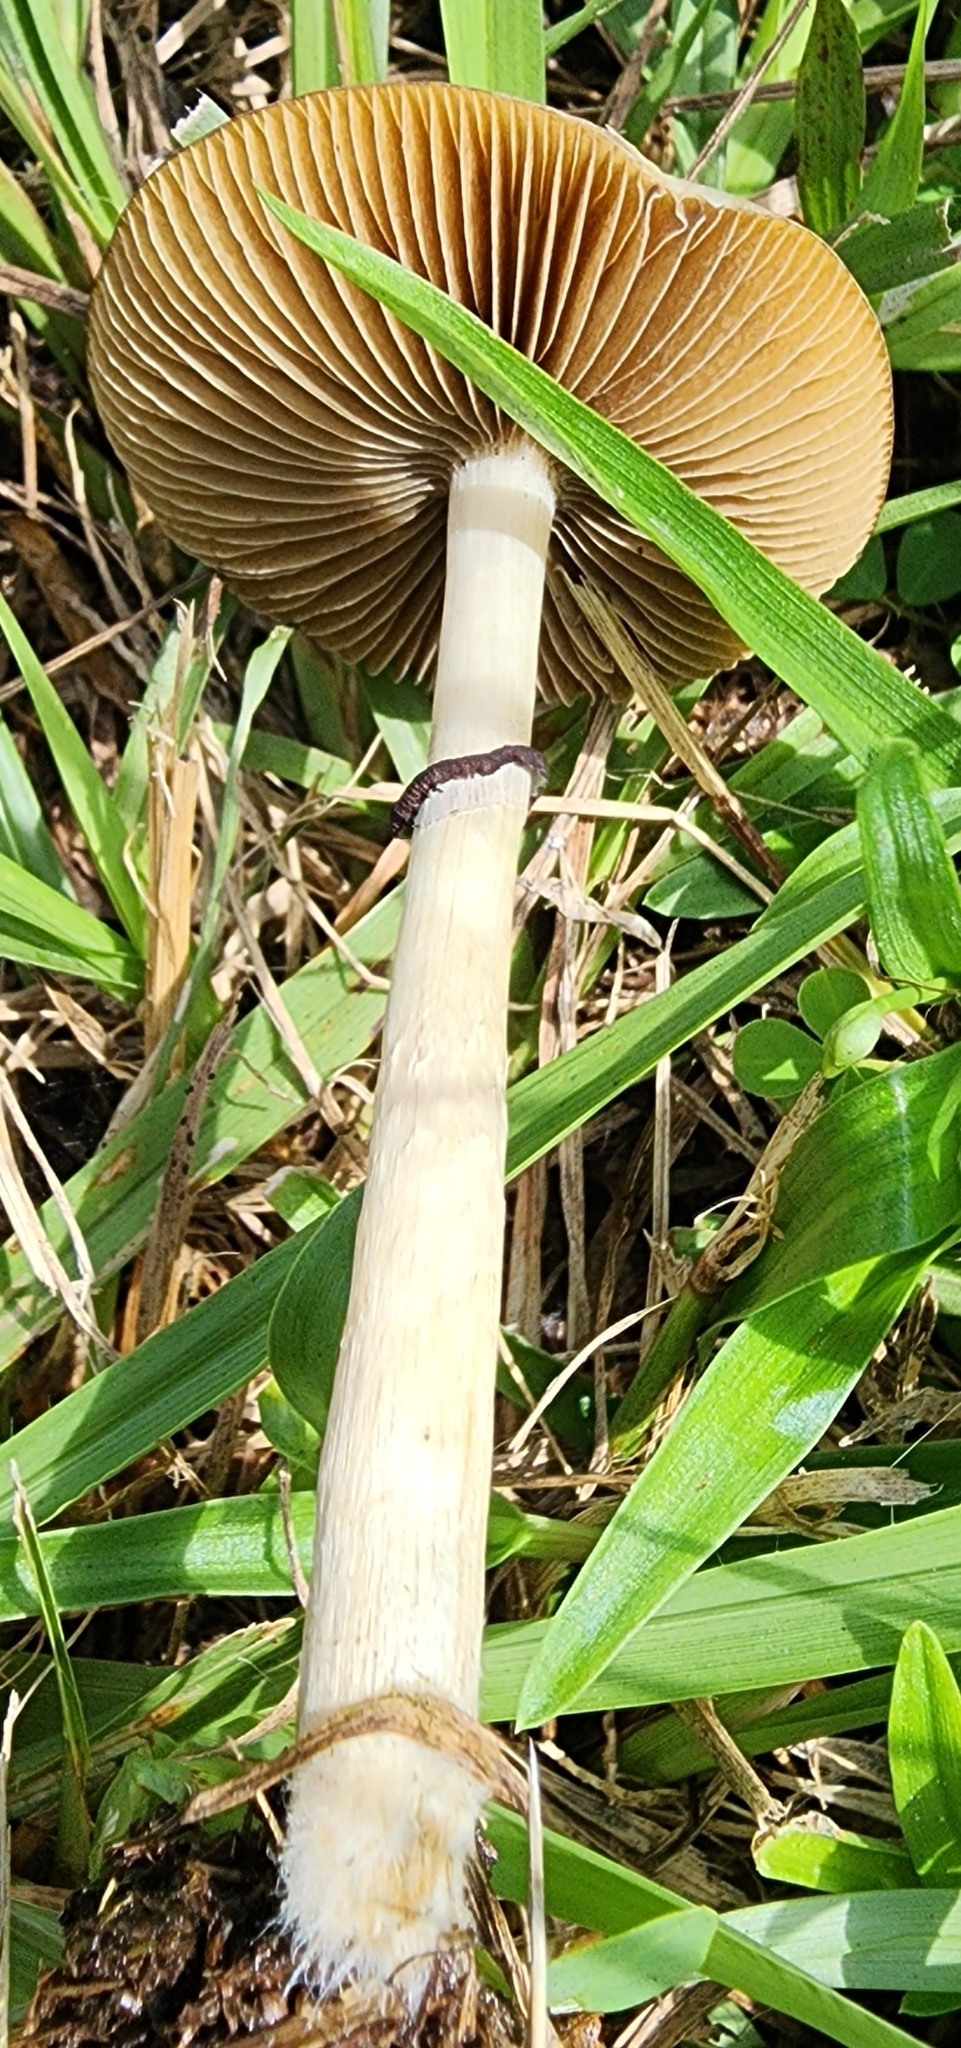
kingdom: Fungi
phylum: Basidiomycota
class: Agaricomycetes
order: Agaricales
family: Hymenogastraceae
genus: Psilocybe
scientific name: Psilocybe cubensis
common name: Golden brownie
